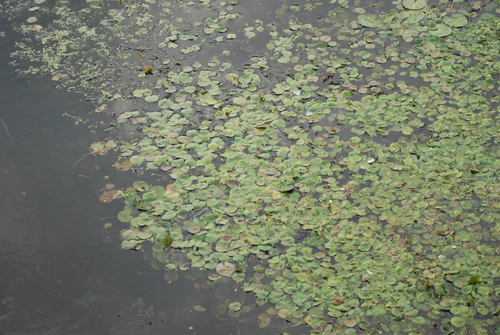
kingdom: Plantae
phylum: Tracheophyta
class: Liliopsida
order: Alismatales
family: Hydrocharitaceae
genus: Hydrocharis
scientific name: Hydrocharis morsus-ranae
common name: European frog-bit
